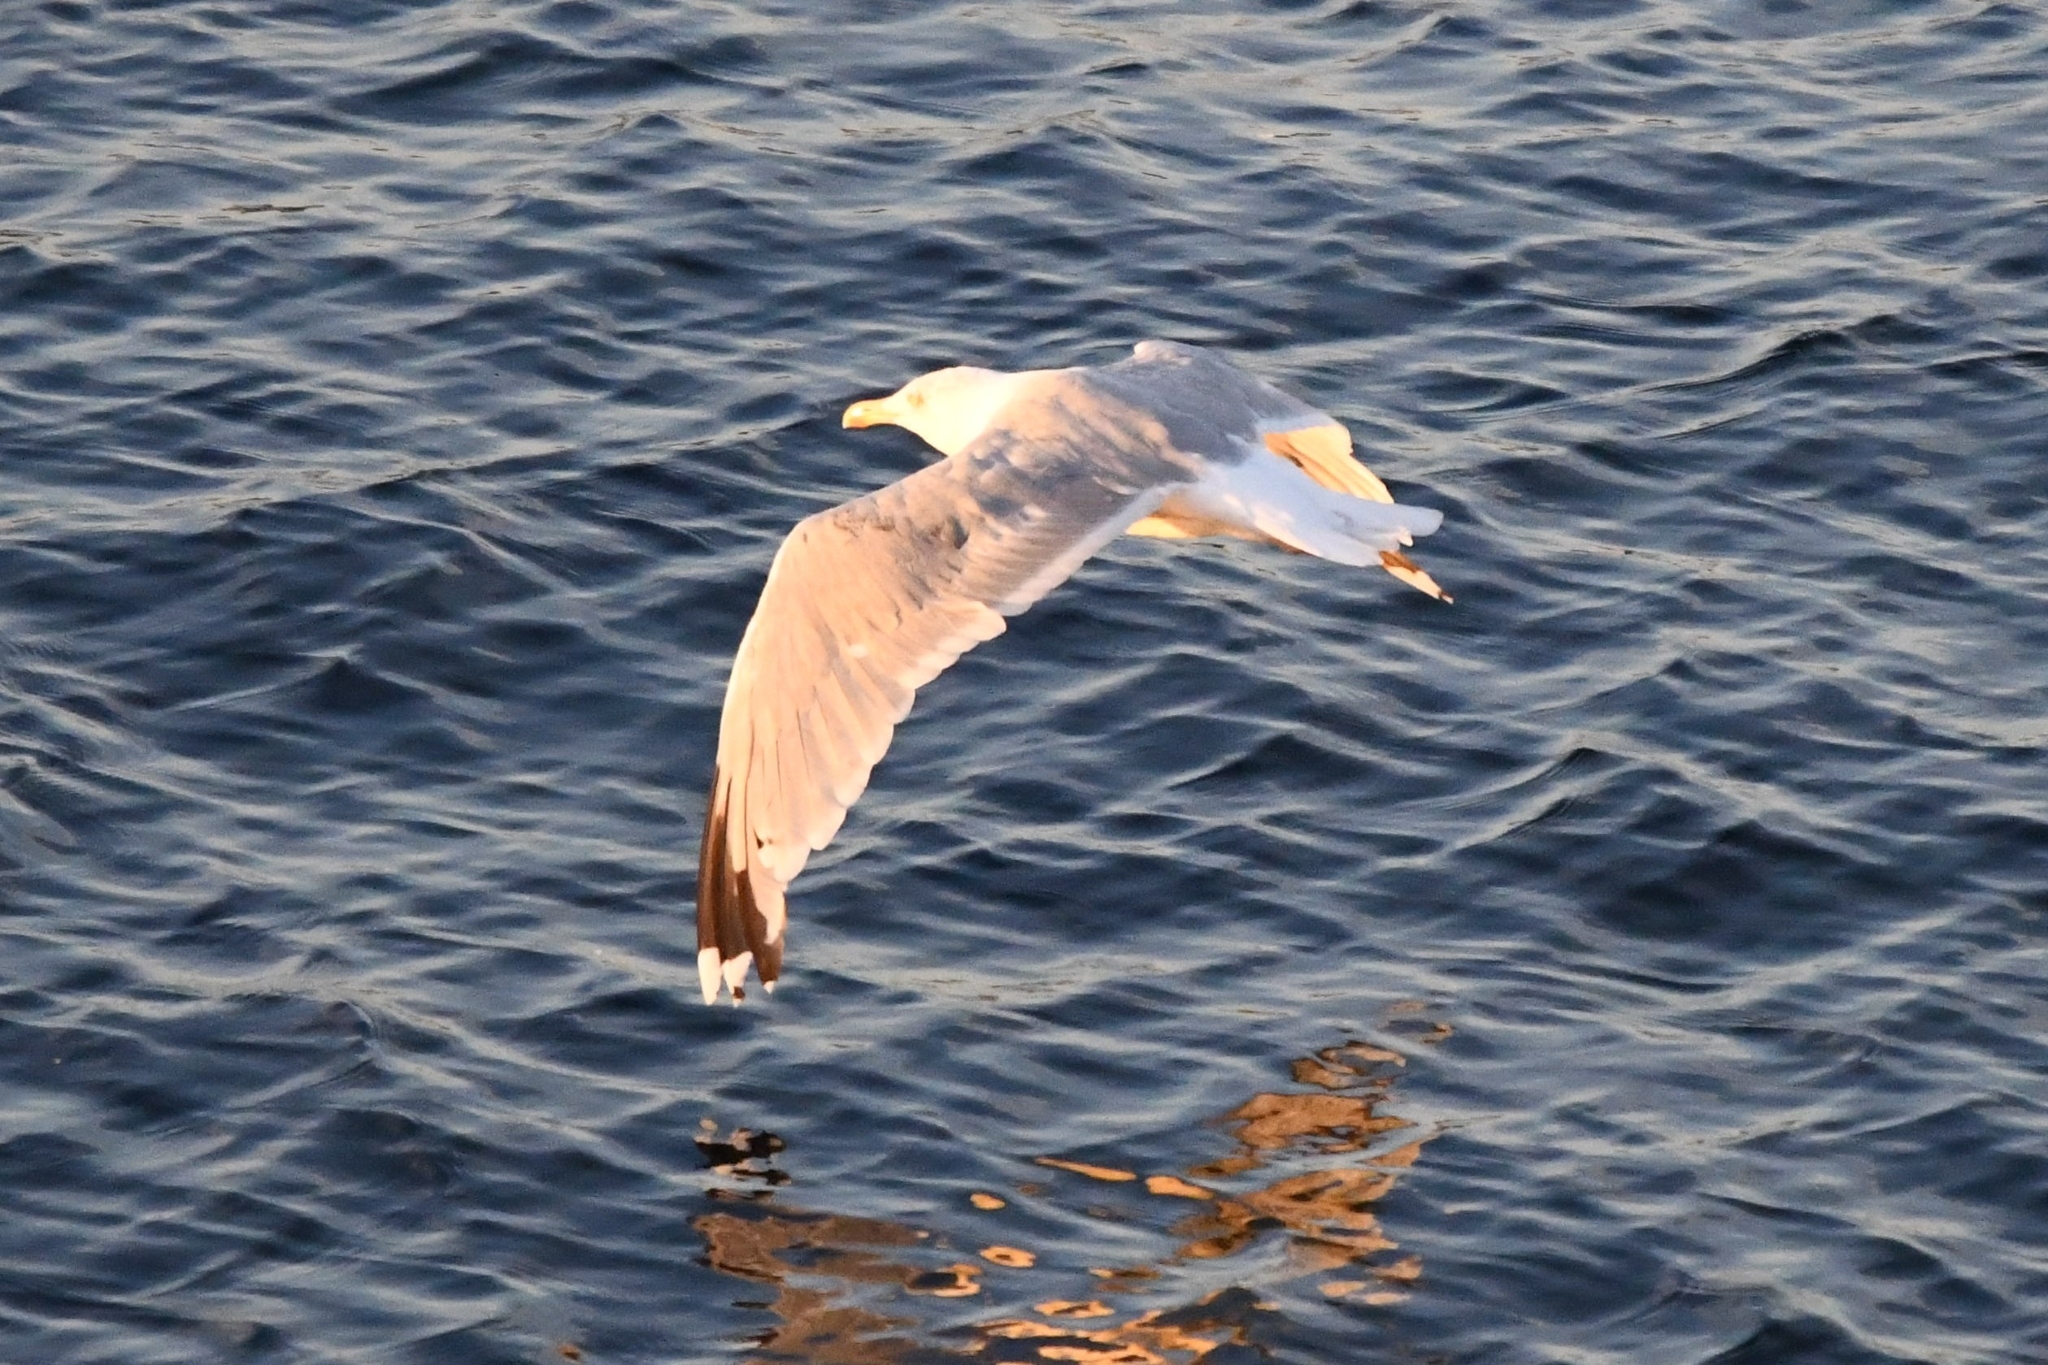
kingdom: Animalia
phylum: Chordata
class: Aves
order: Charadriiformes
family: Laridae
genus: Larus
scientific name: Larus argentatus
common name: Herring gull
